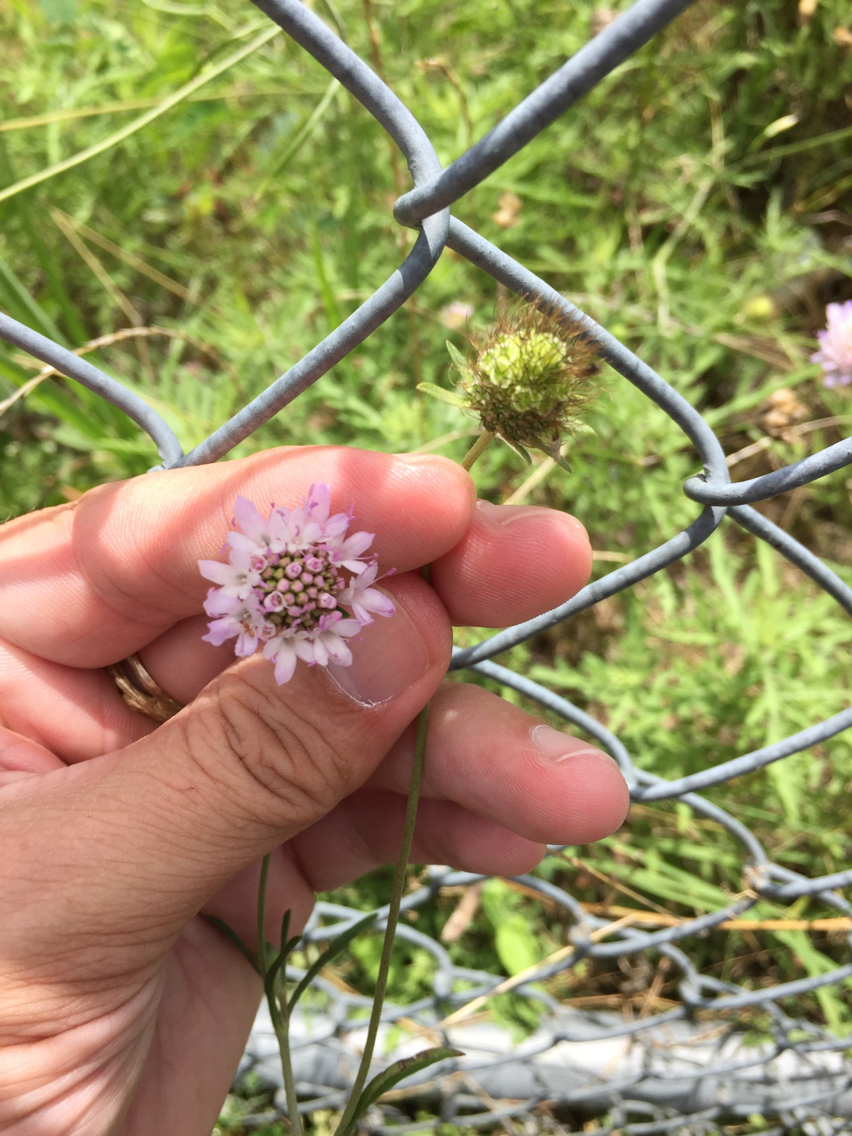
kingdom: Plantae
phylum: Tracheophyta
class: Magnoliopsida
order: Dipsacales
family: Caprifoliaceae
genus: Sixalix
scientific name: Sixalix atropurpurea
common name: Sweet scabious
